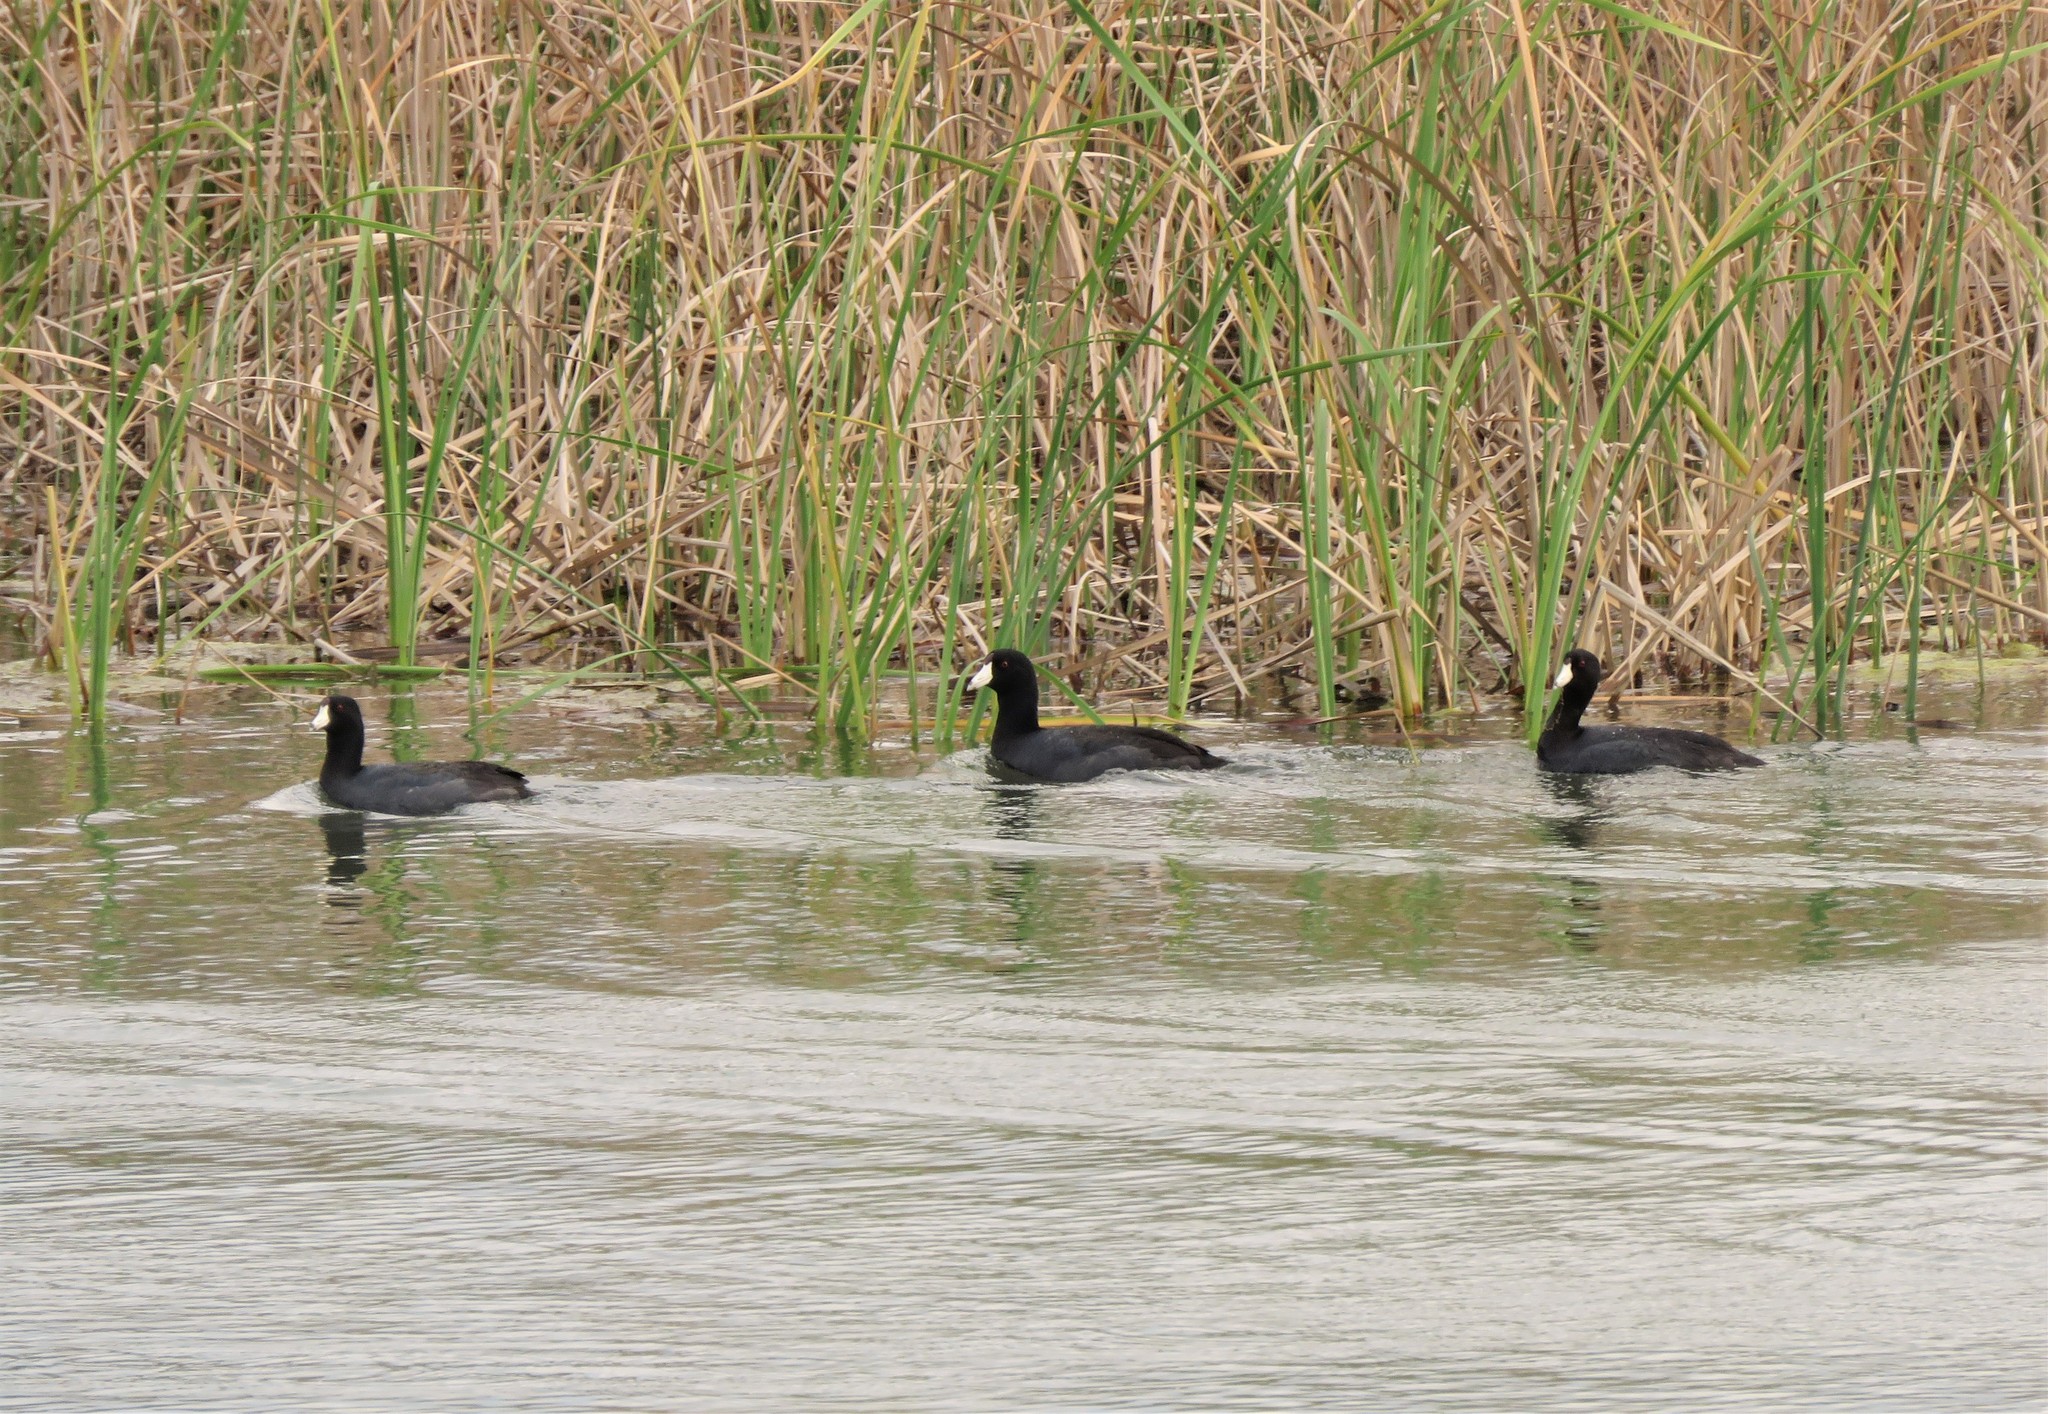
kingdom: Animalia
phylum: Chordata
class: Aves
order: Gruiformes
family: Rallidae
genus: Fulica
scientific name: Fulica americana
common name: American coot
